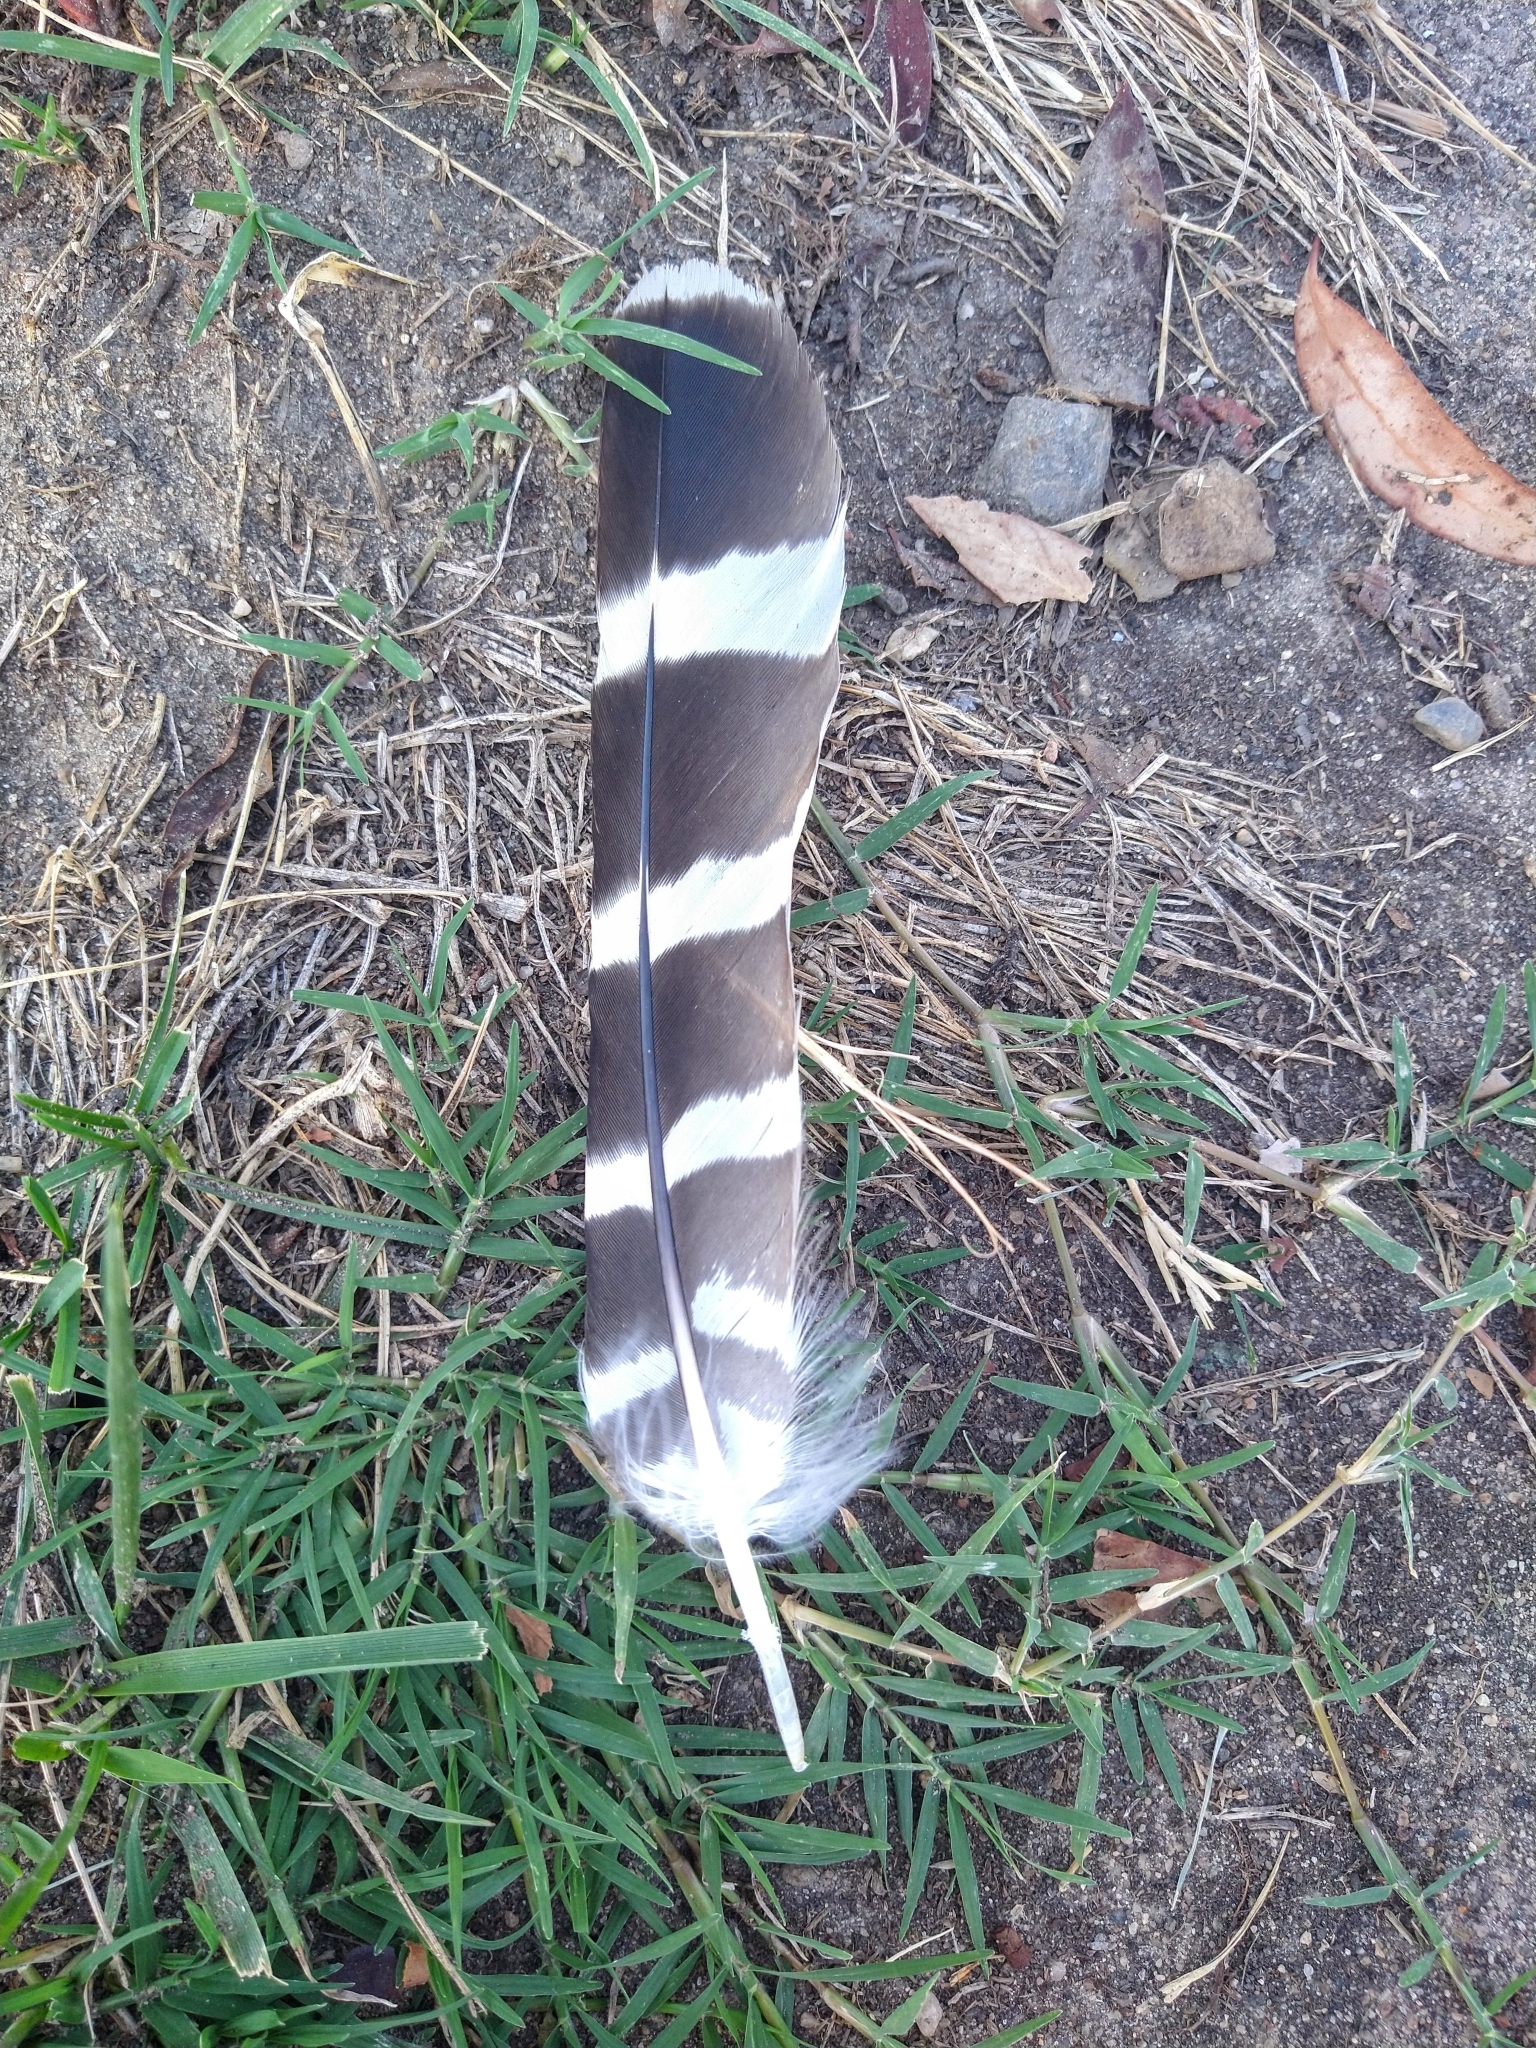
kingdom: Animalia
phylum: Chordata
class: Aves
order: Accipitriformes
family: Accipitridae
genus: Buteo
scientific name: Buteo lineatus
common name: Red-shouldered hawk
